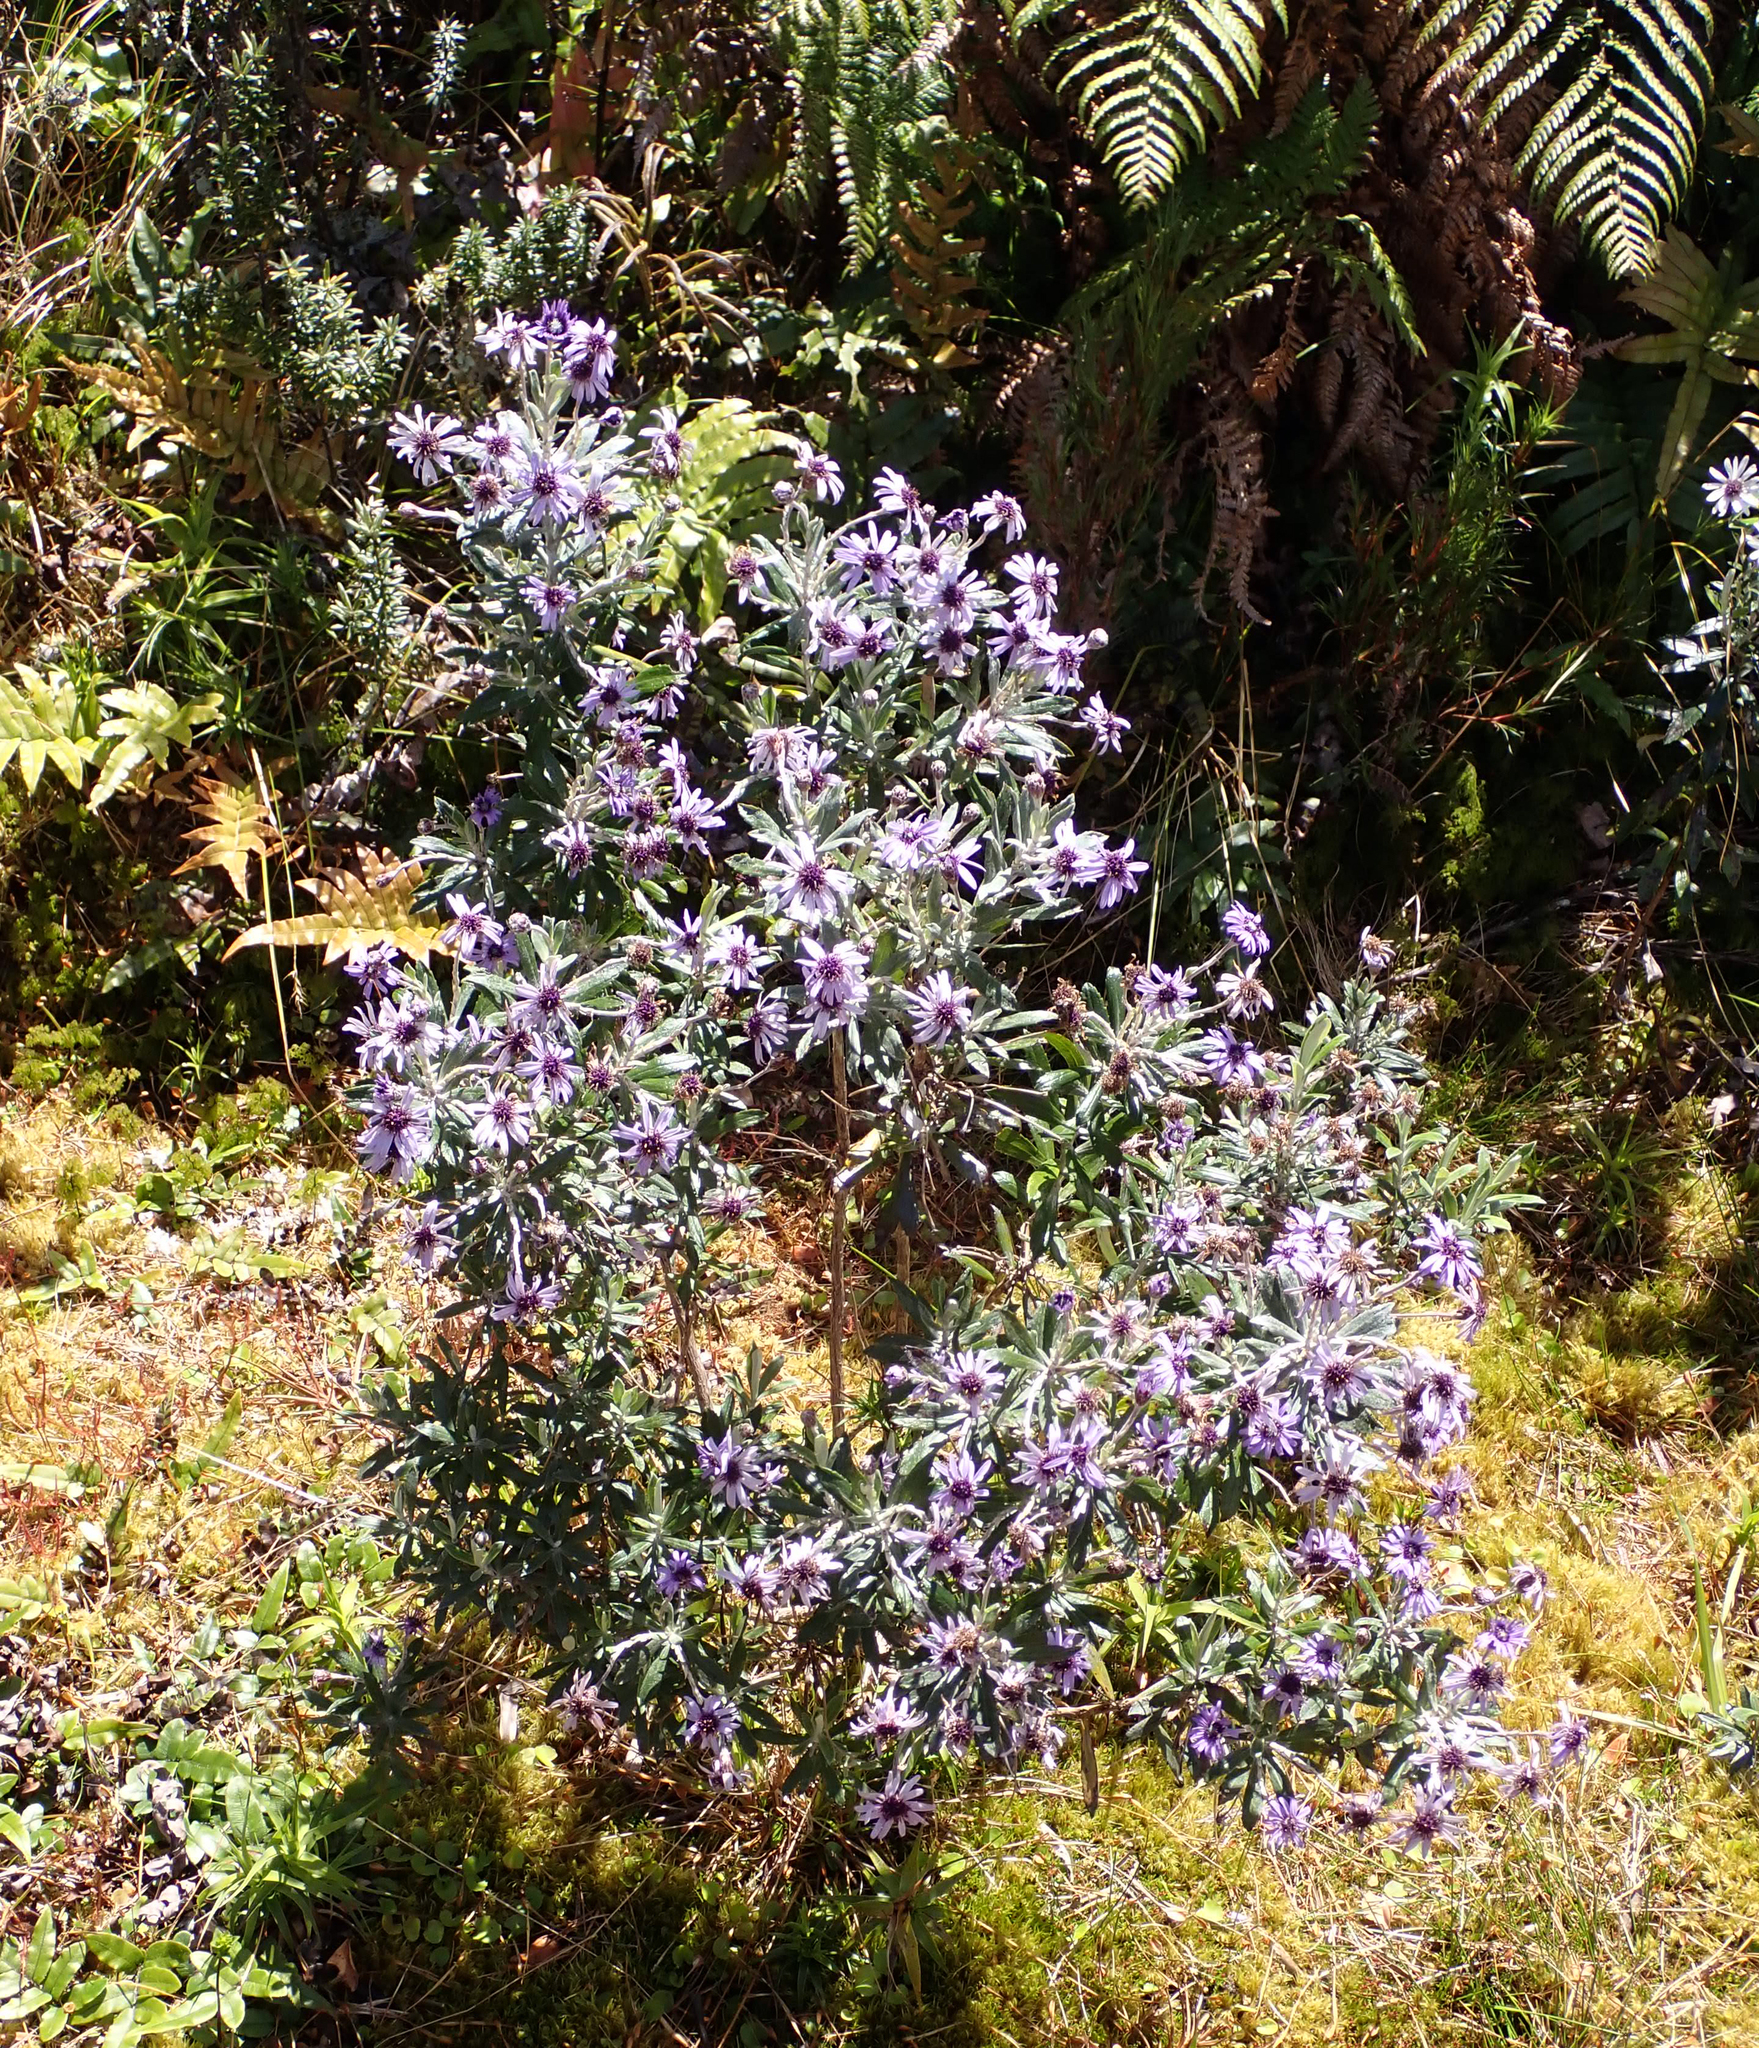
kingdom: Plantae
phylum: Tracheophyta
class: Magnoliopsida
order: Asterales
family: Asteraceae
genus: Macrolearia
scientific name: Macrolearia semidentata
